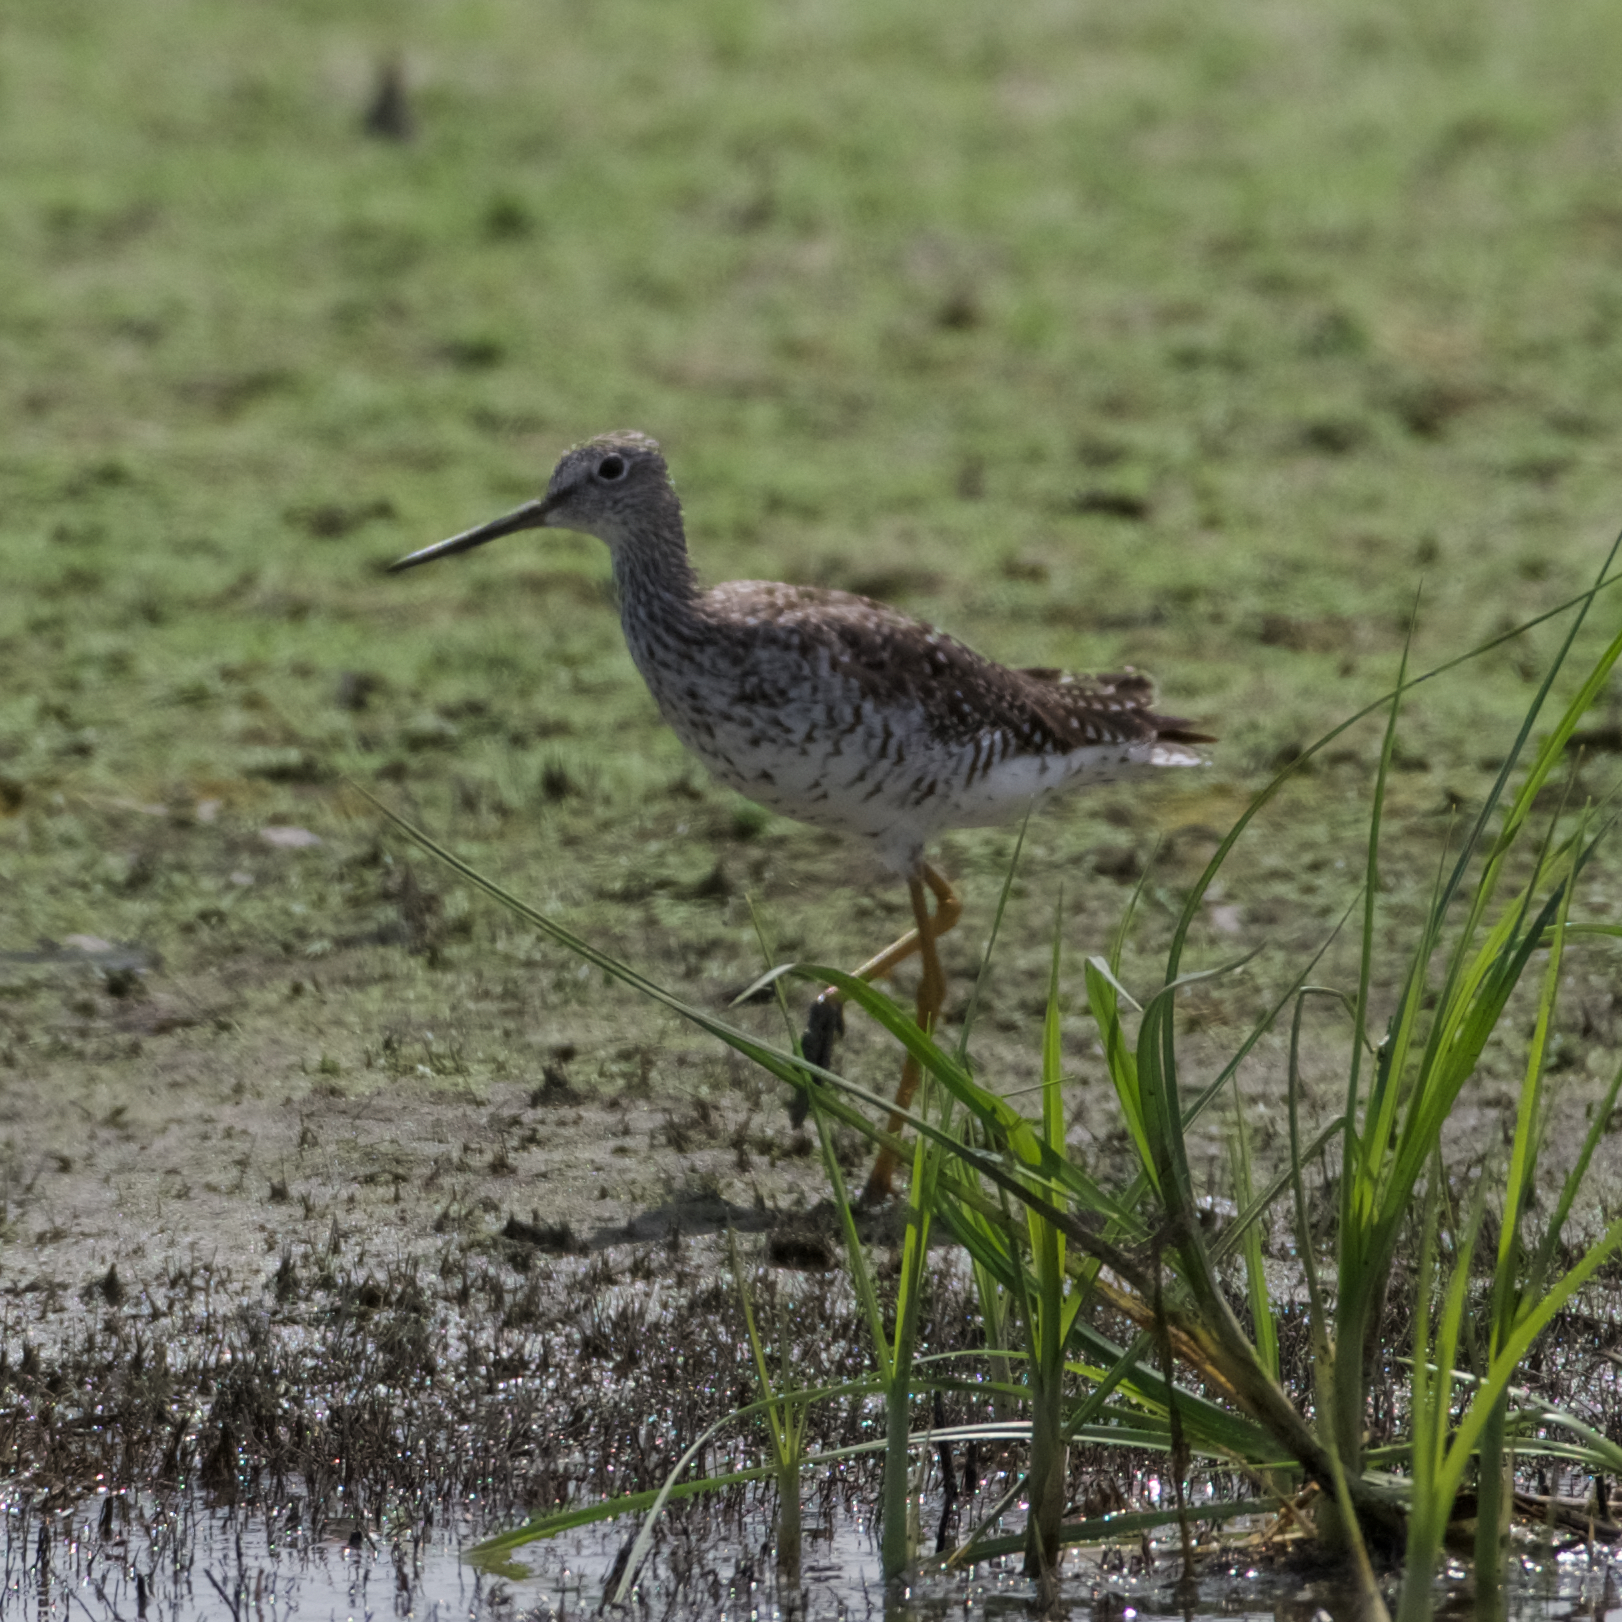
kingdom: Animalia
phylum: Chordata
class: Aves
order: Charadriiformes
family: Scolopacidae
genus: Tringa
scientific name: Tringa melanoleuca
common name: Greater yellowlegs
